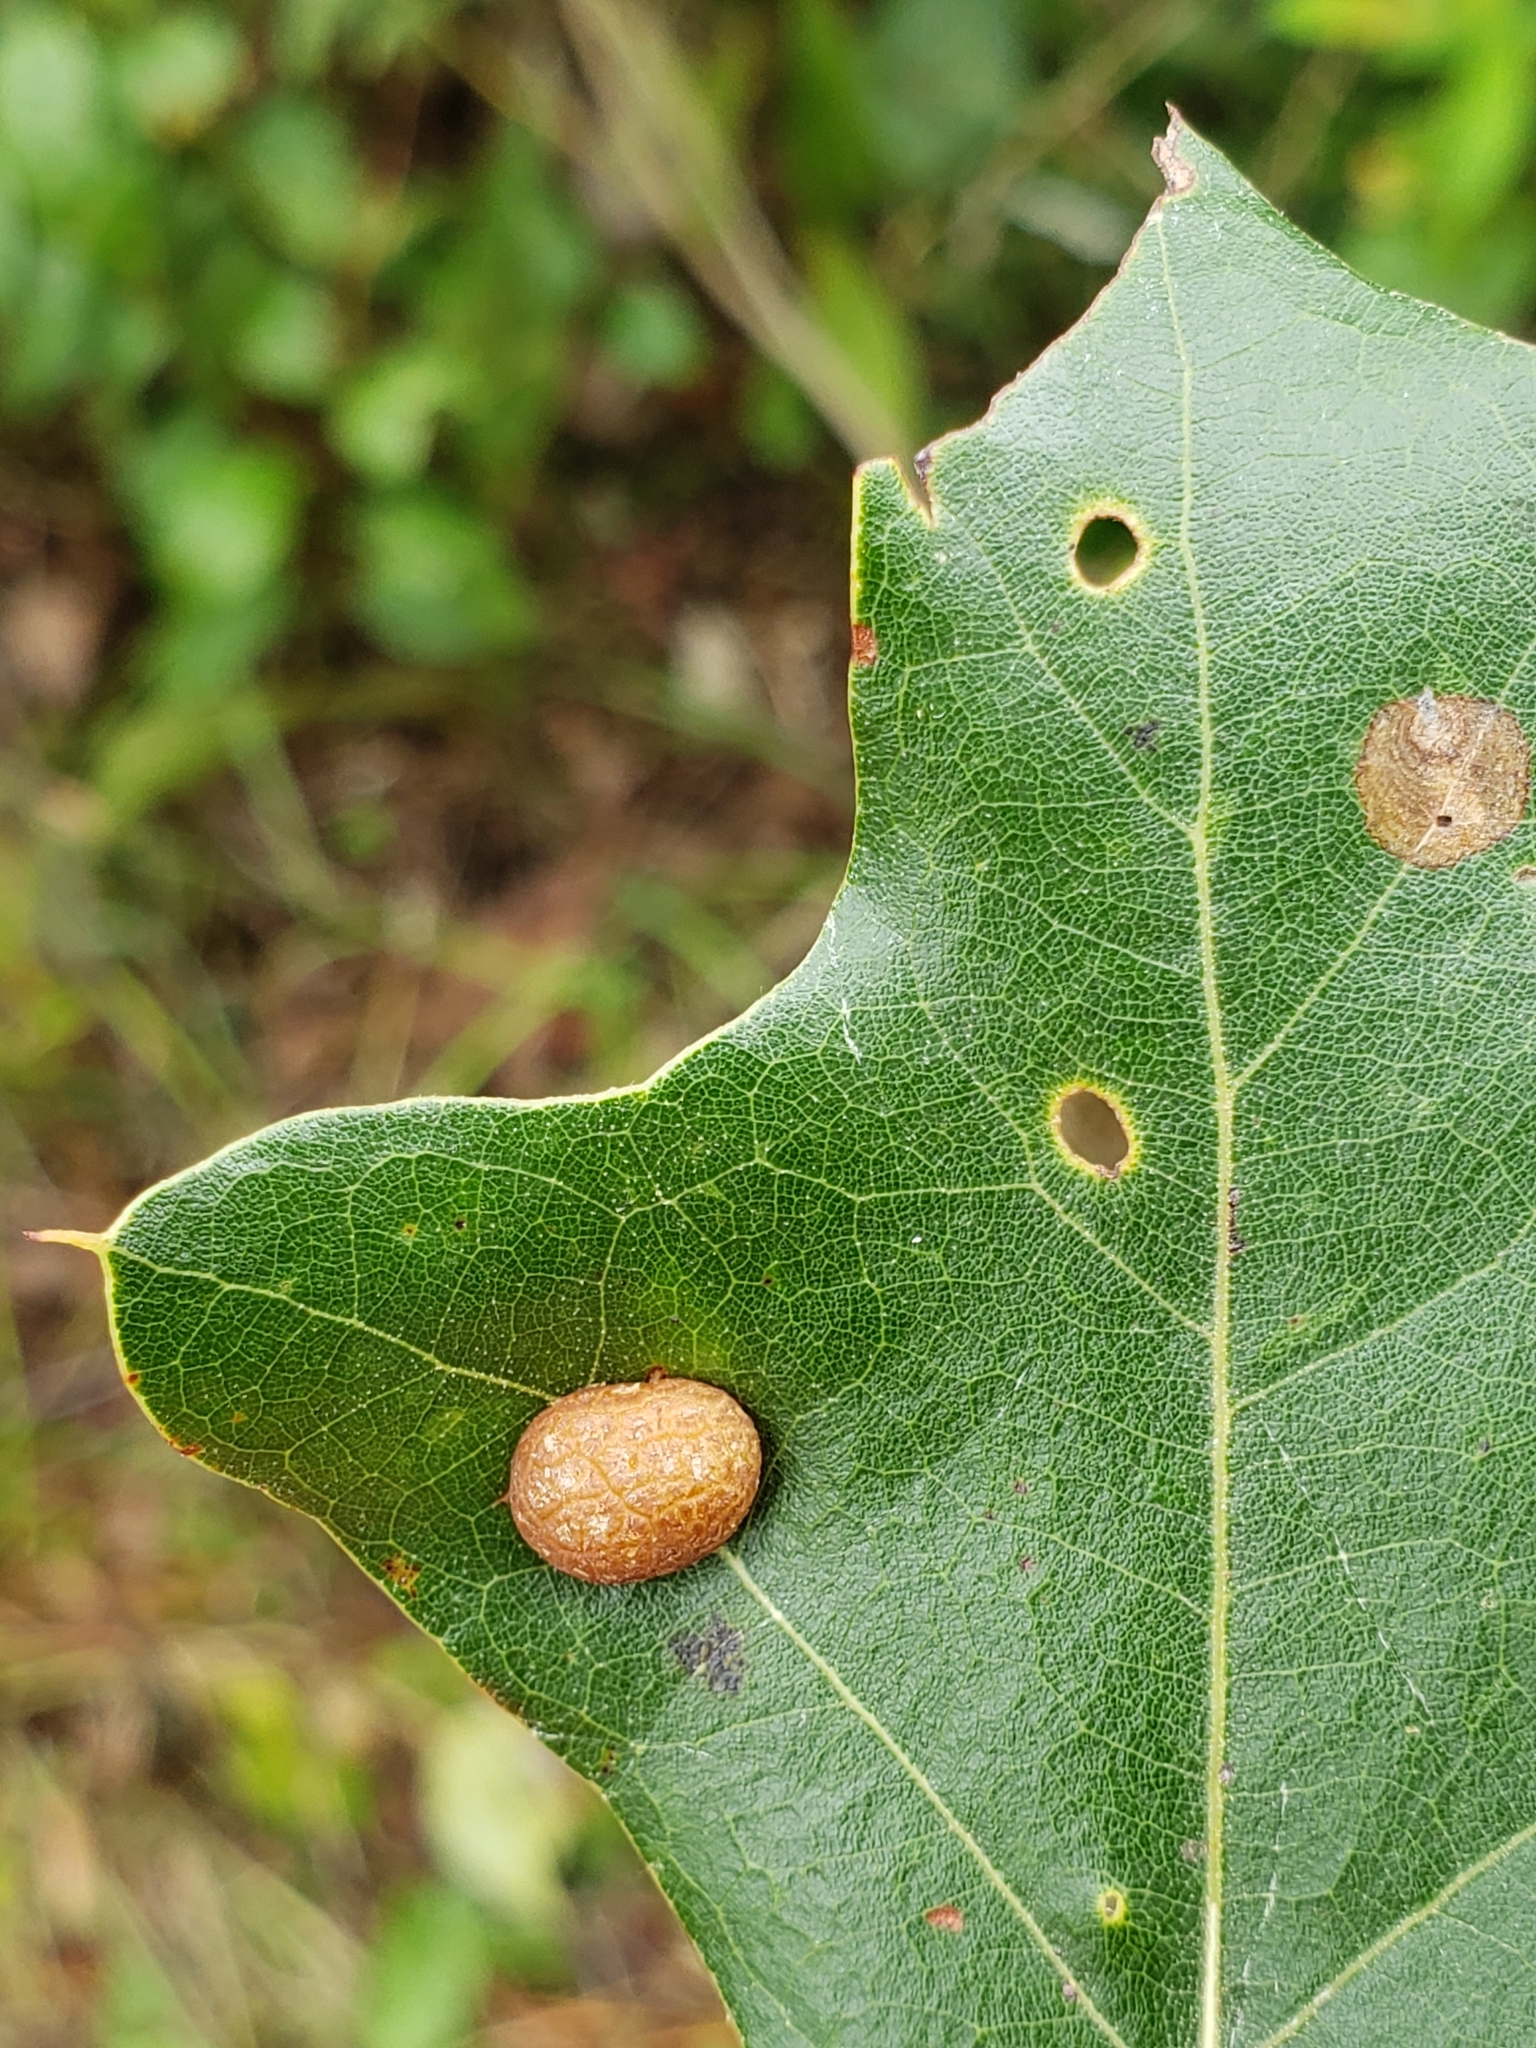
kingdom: Animalia
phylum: Arthropoda
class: Insecta
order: Diptera
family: Cecidomyiidae
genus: Polystepha
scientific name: Polystepha pilulae
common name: Oak leaf gall midge
